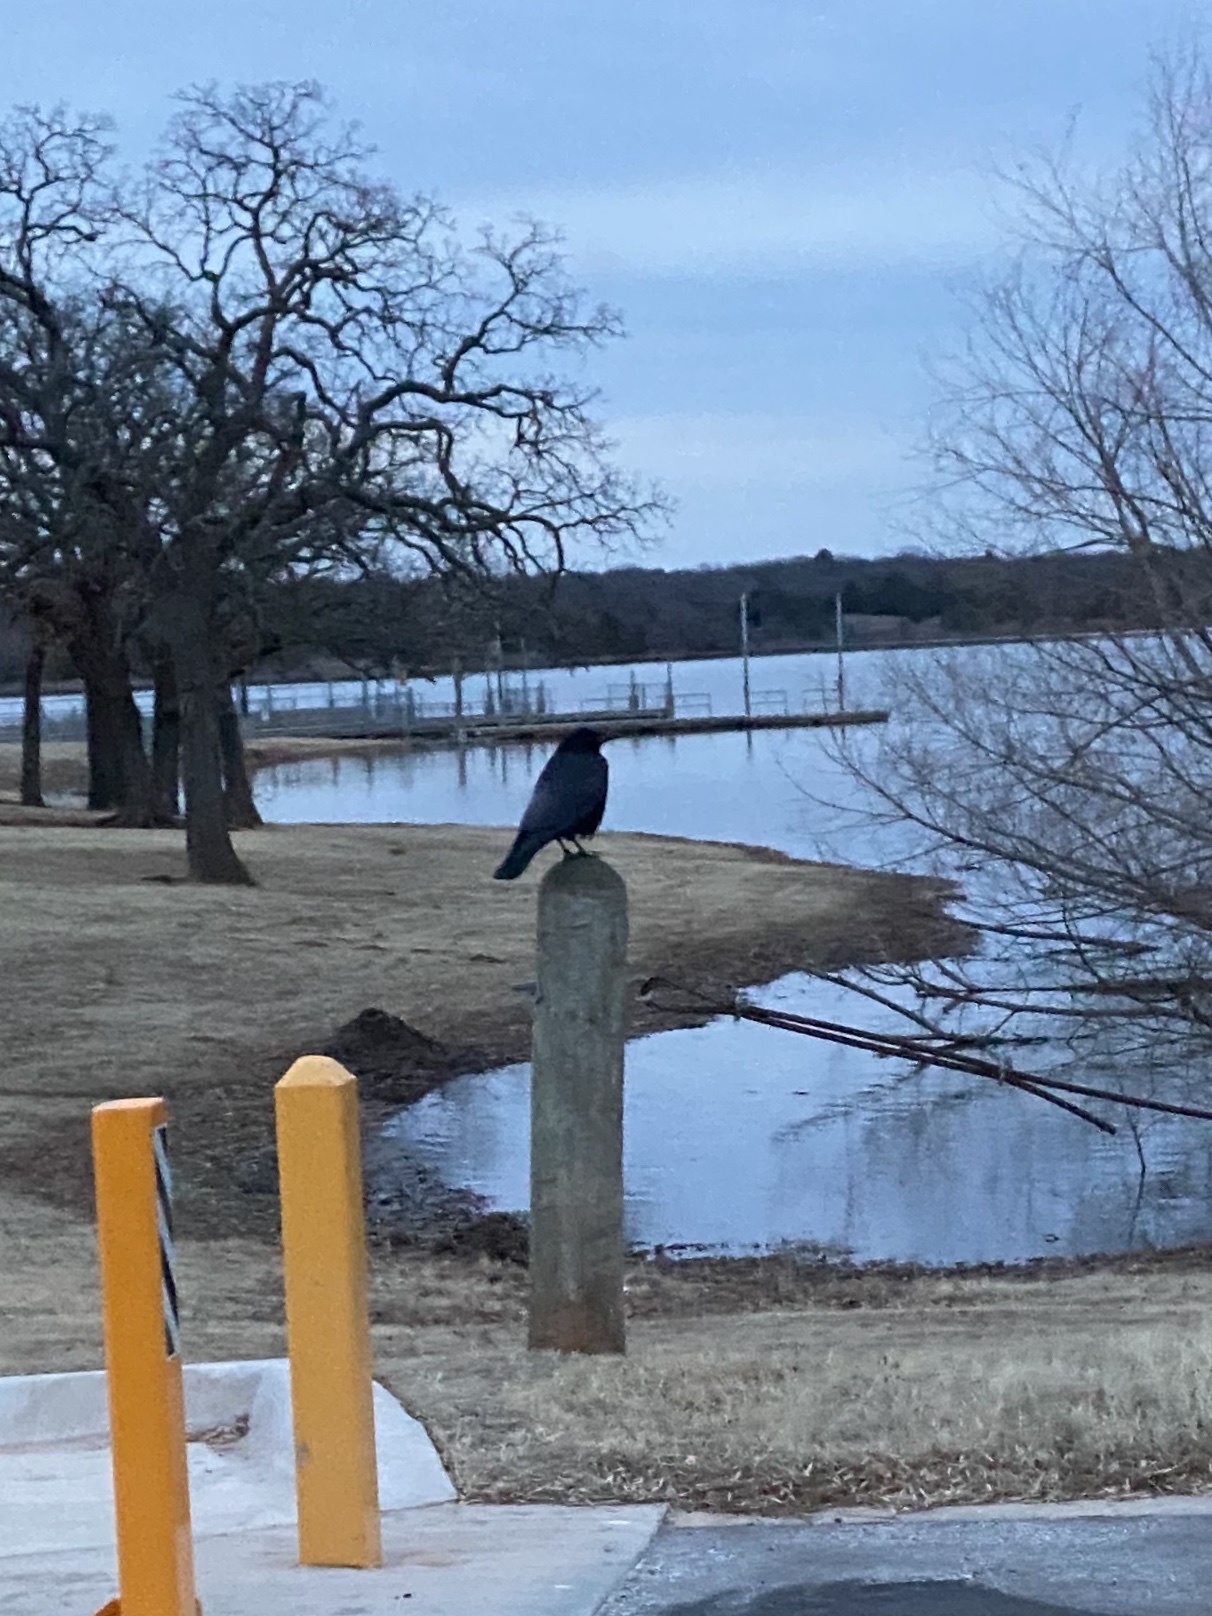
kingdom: Animalia
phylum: Chordata
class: Aves
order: Passeriformes
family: Corvidae
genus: Corvus
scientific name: Corvus brachyrhynchos
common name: American crow
